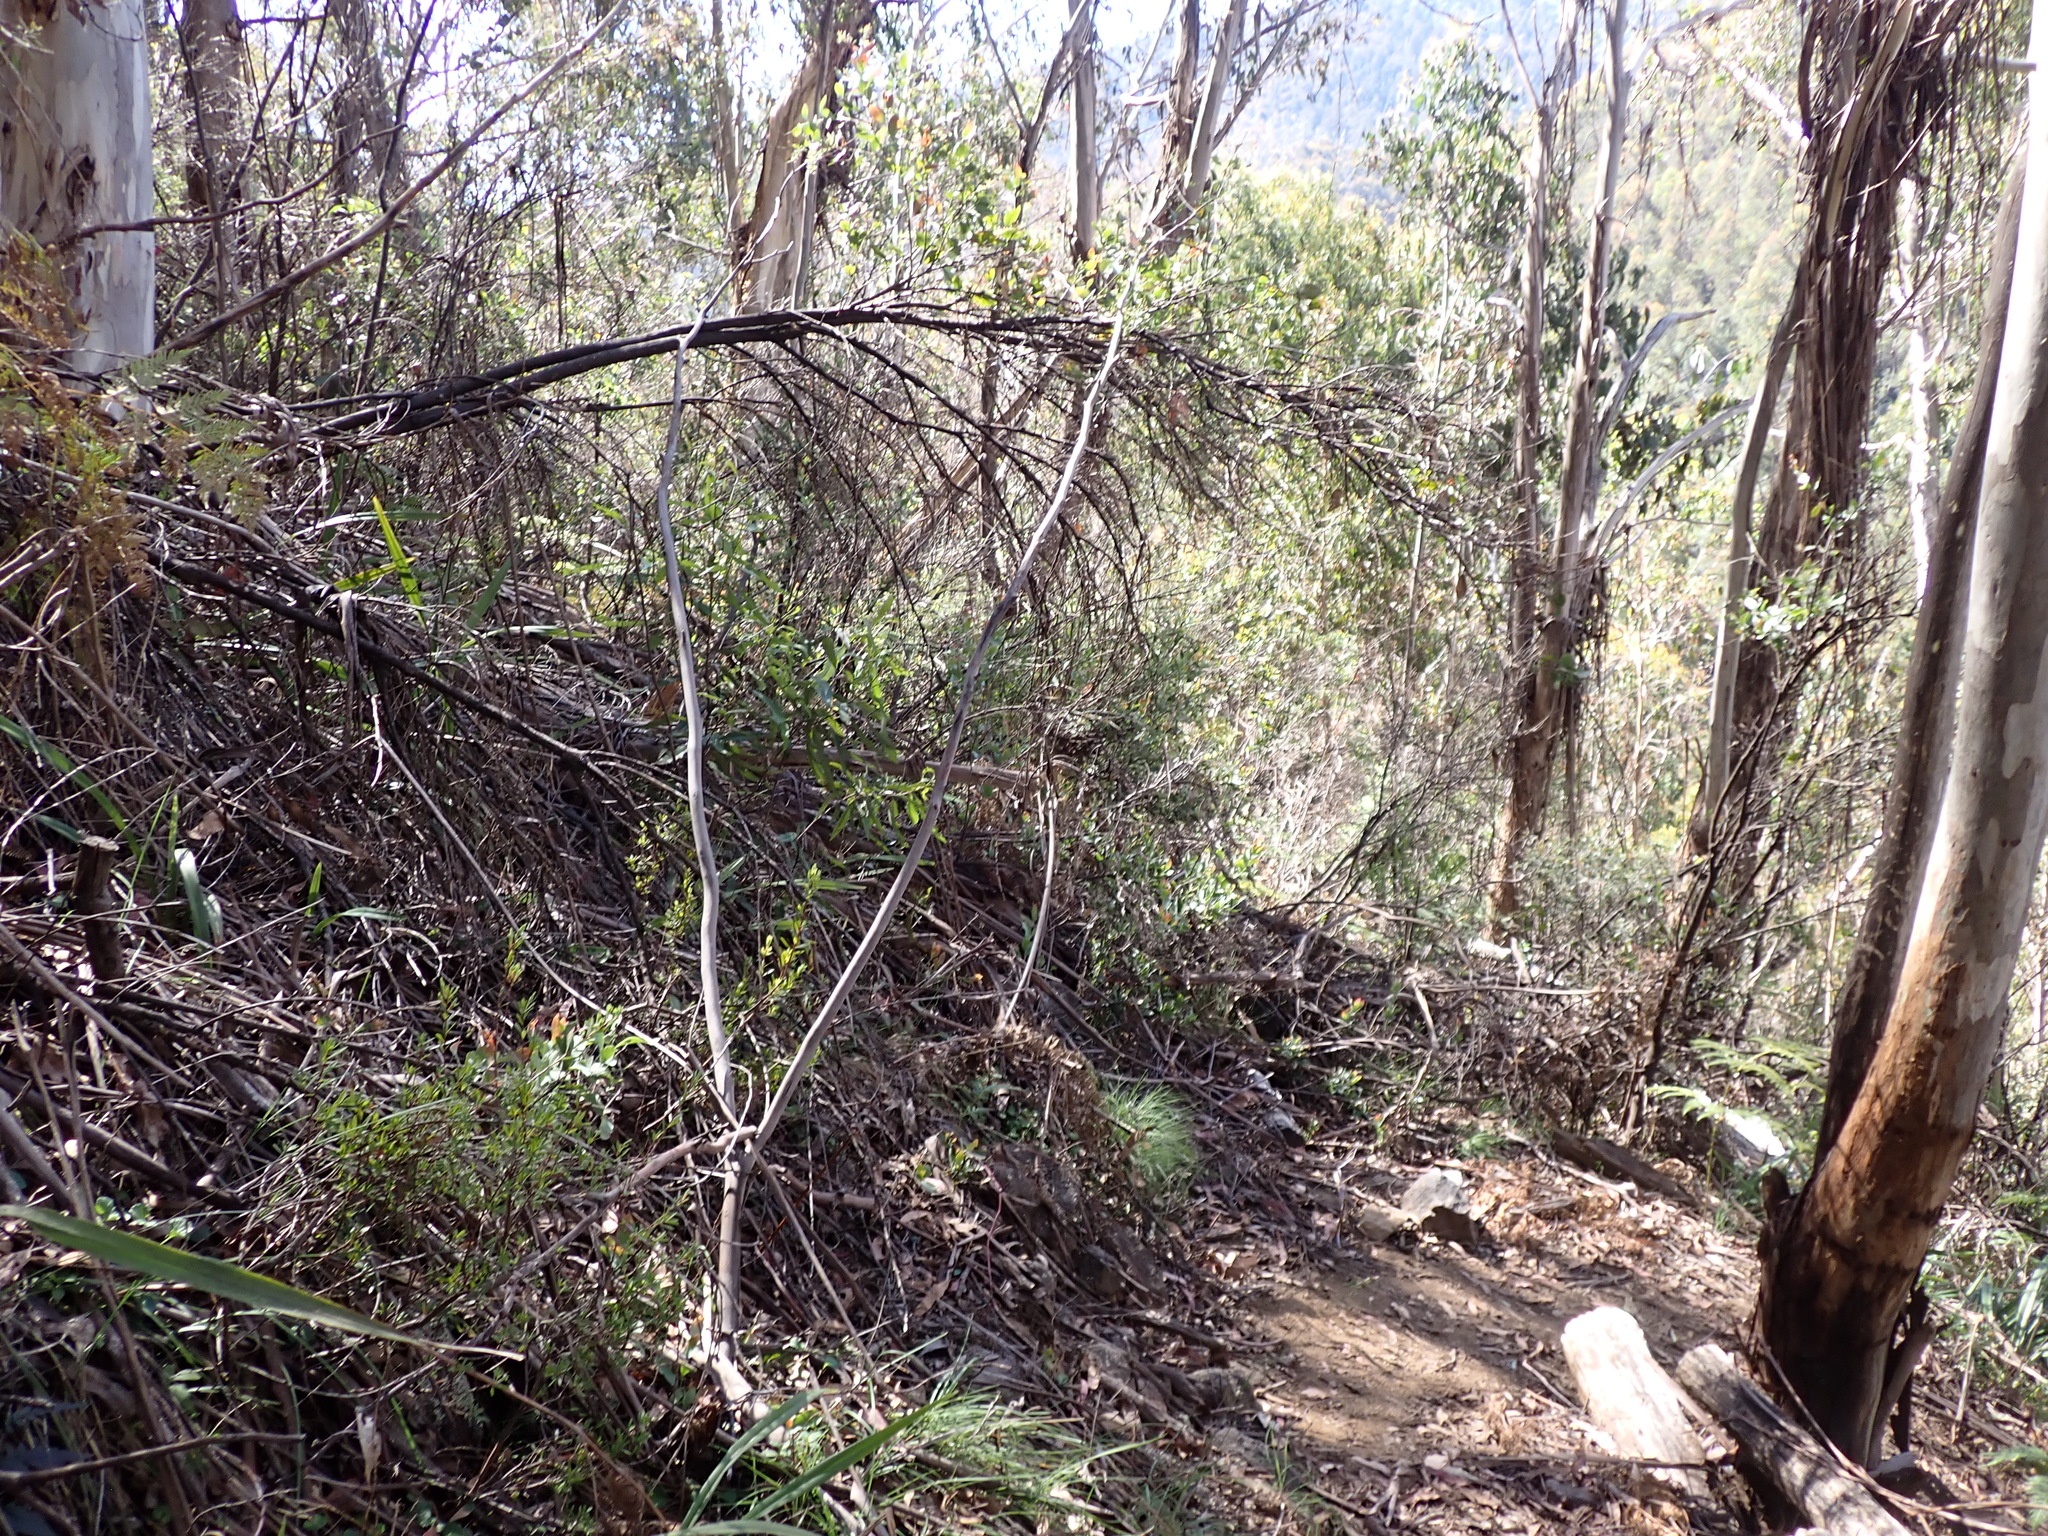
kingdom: Plantae
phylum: Tracheophyta
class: Magnoliopsida
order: Malpighiales
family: Violaceae
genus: Viola
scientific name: Viola hederacea
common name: Australian violet
